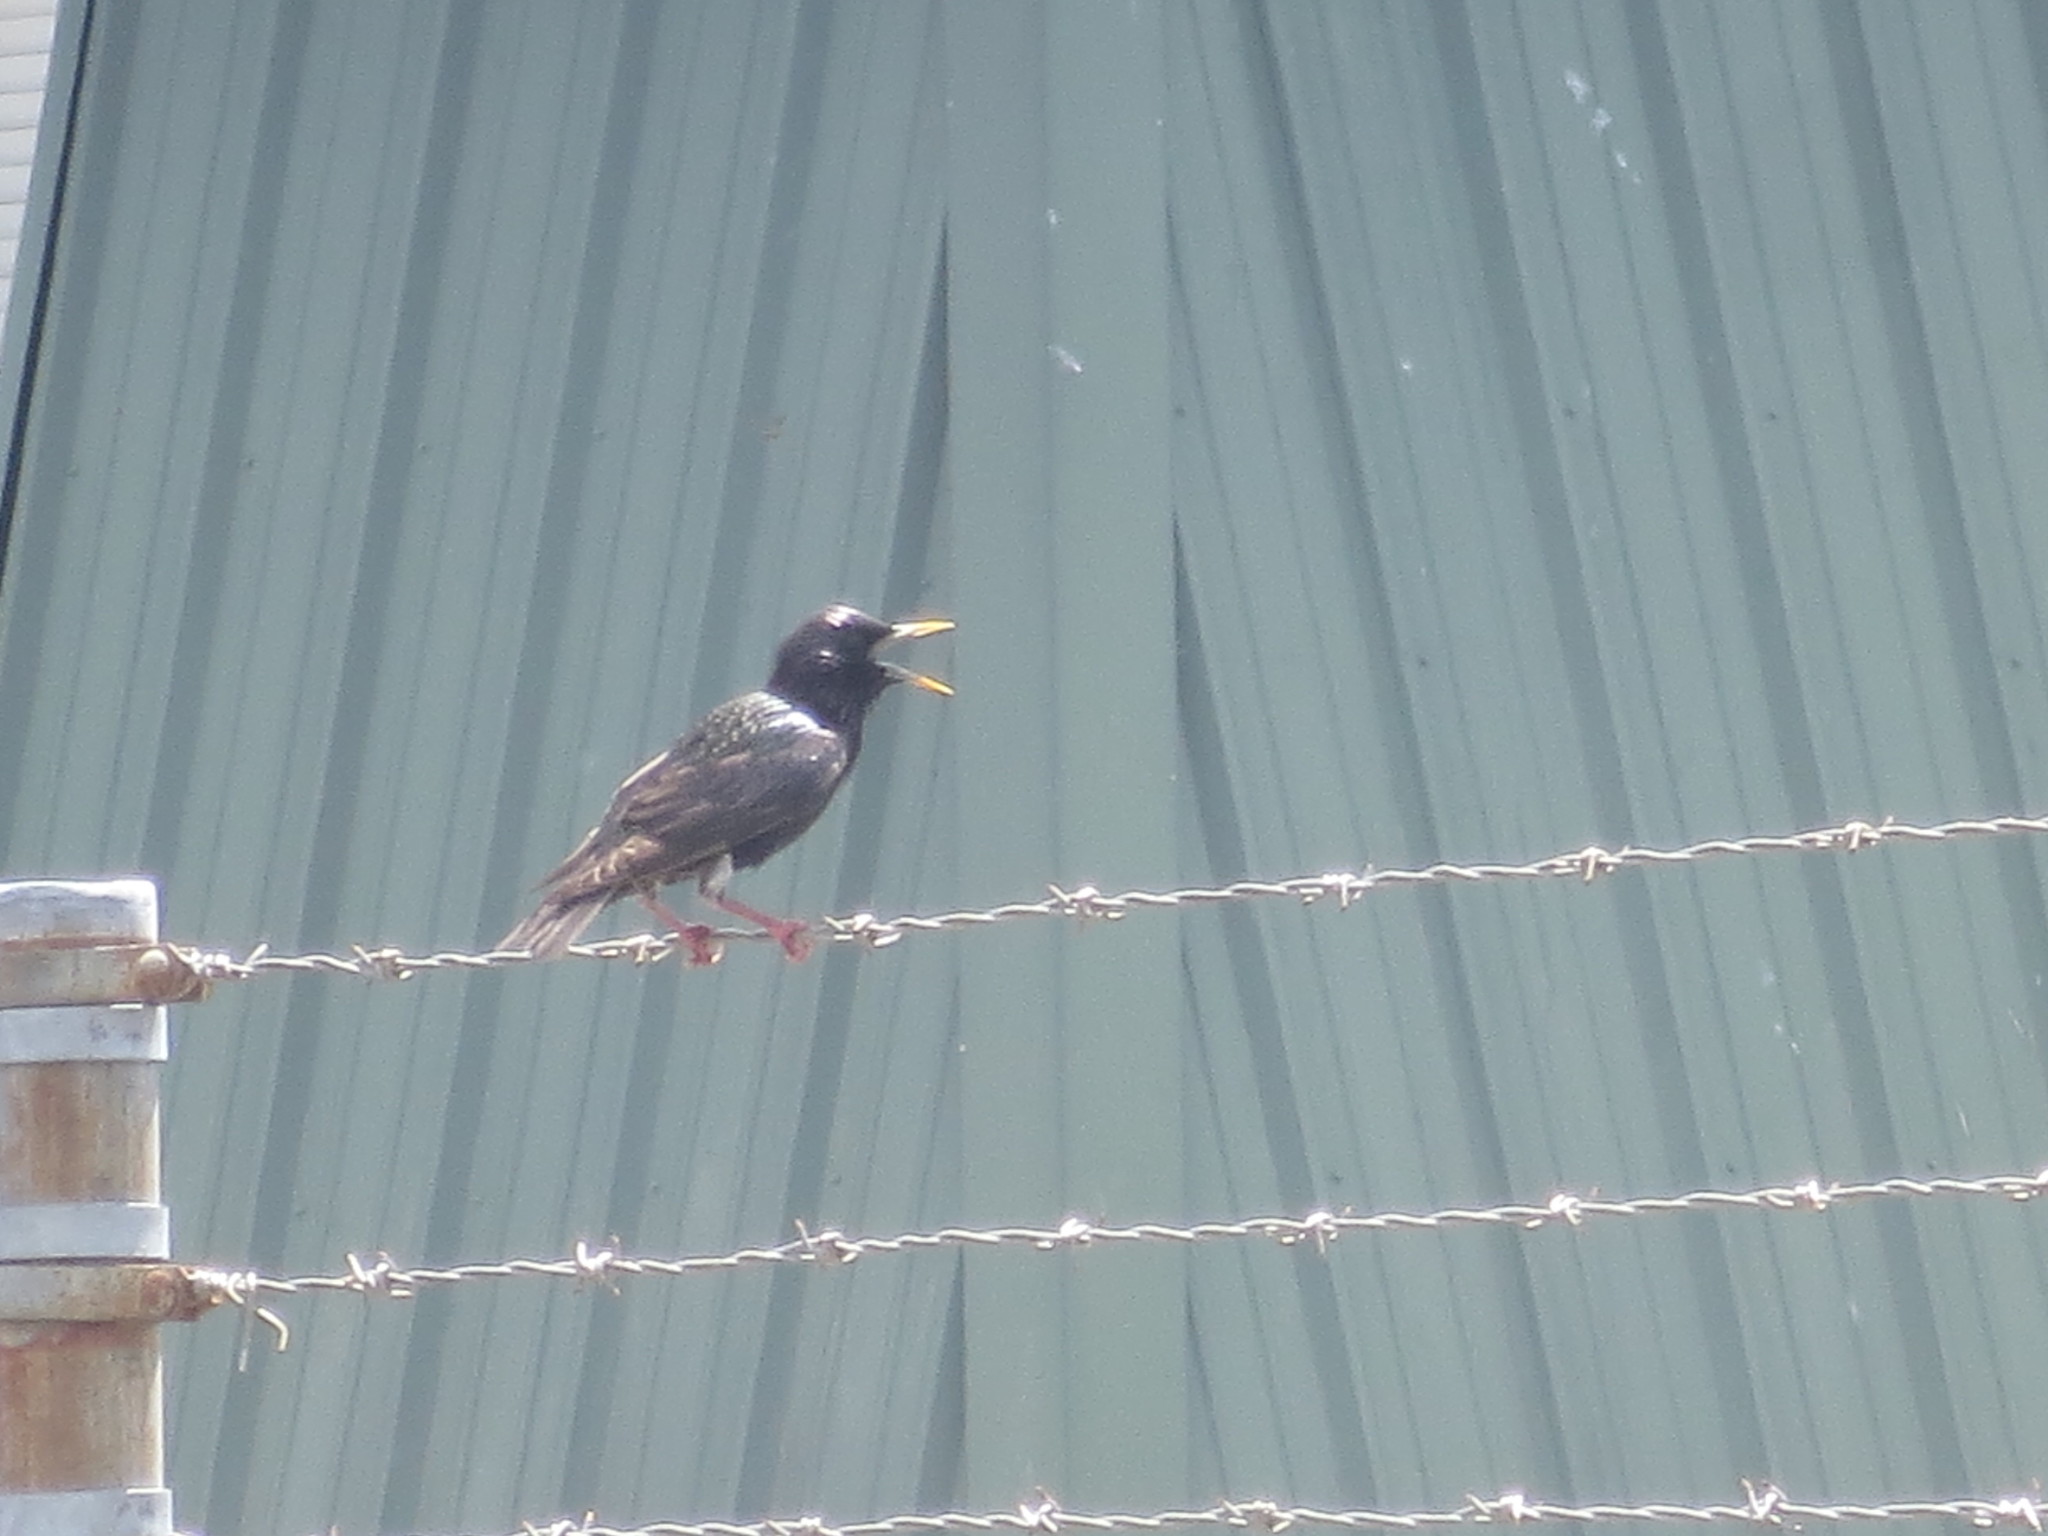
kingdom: Animalia
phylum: Chordata
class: Aves
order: Passeriformes
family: Sturnidae
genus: Sturnus
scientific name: Sturnus vulgaris
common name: Common starling
